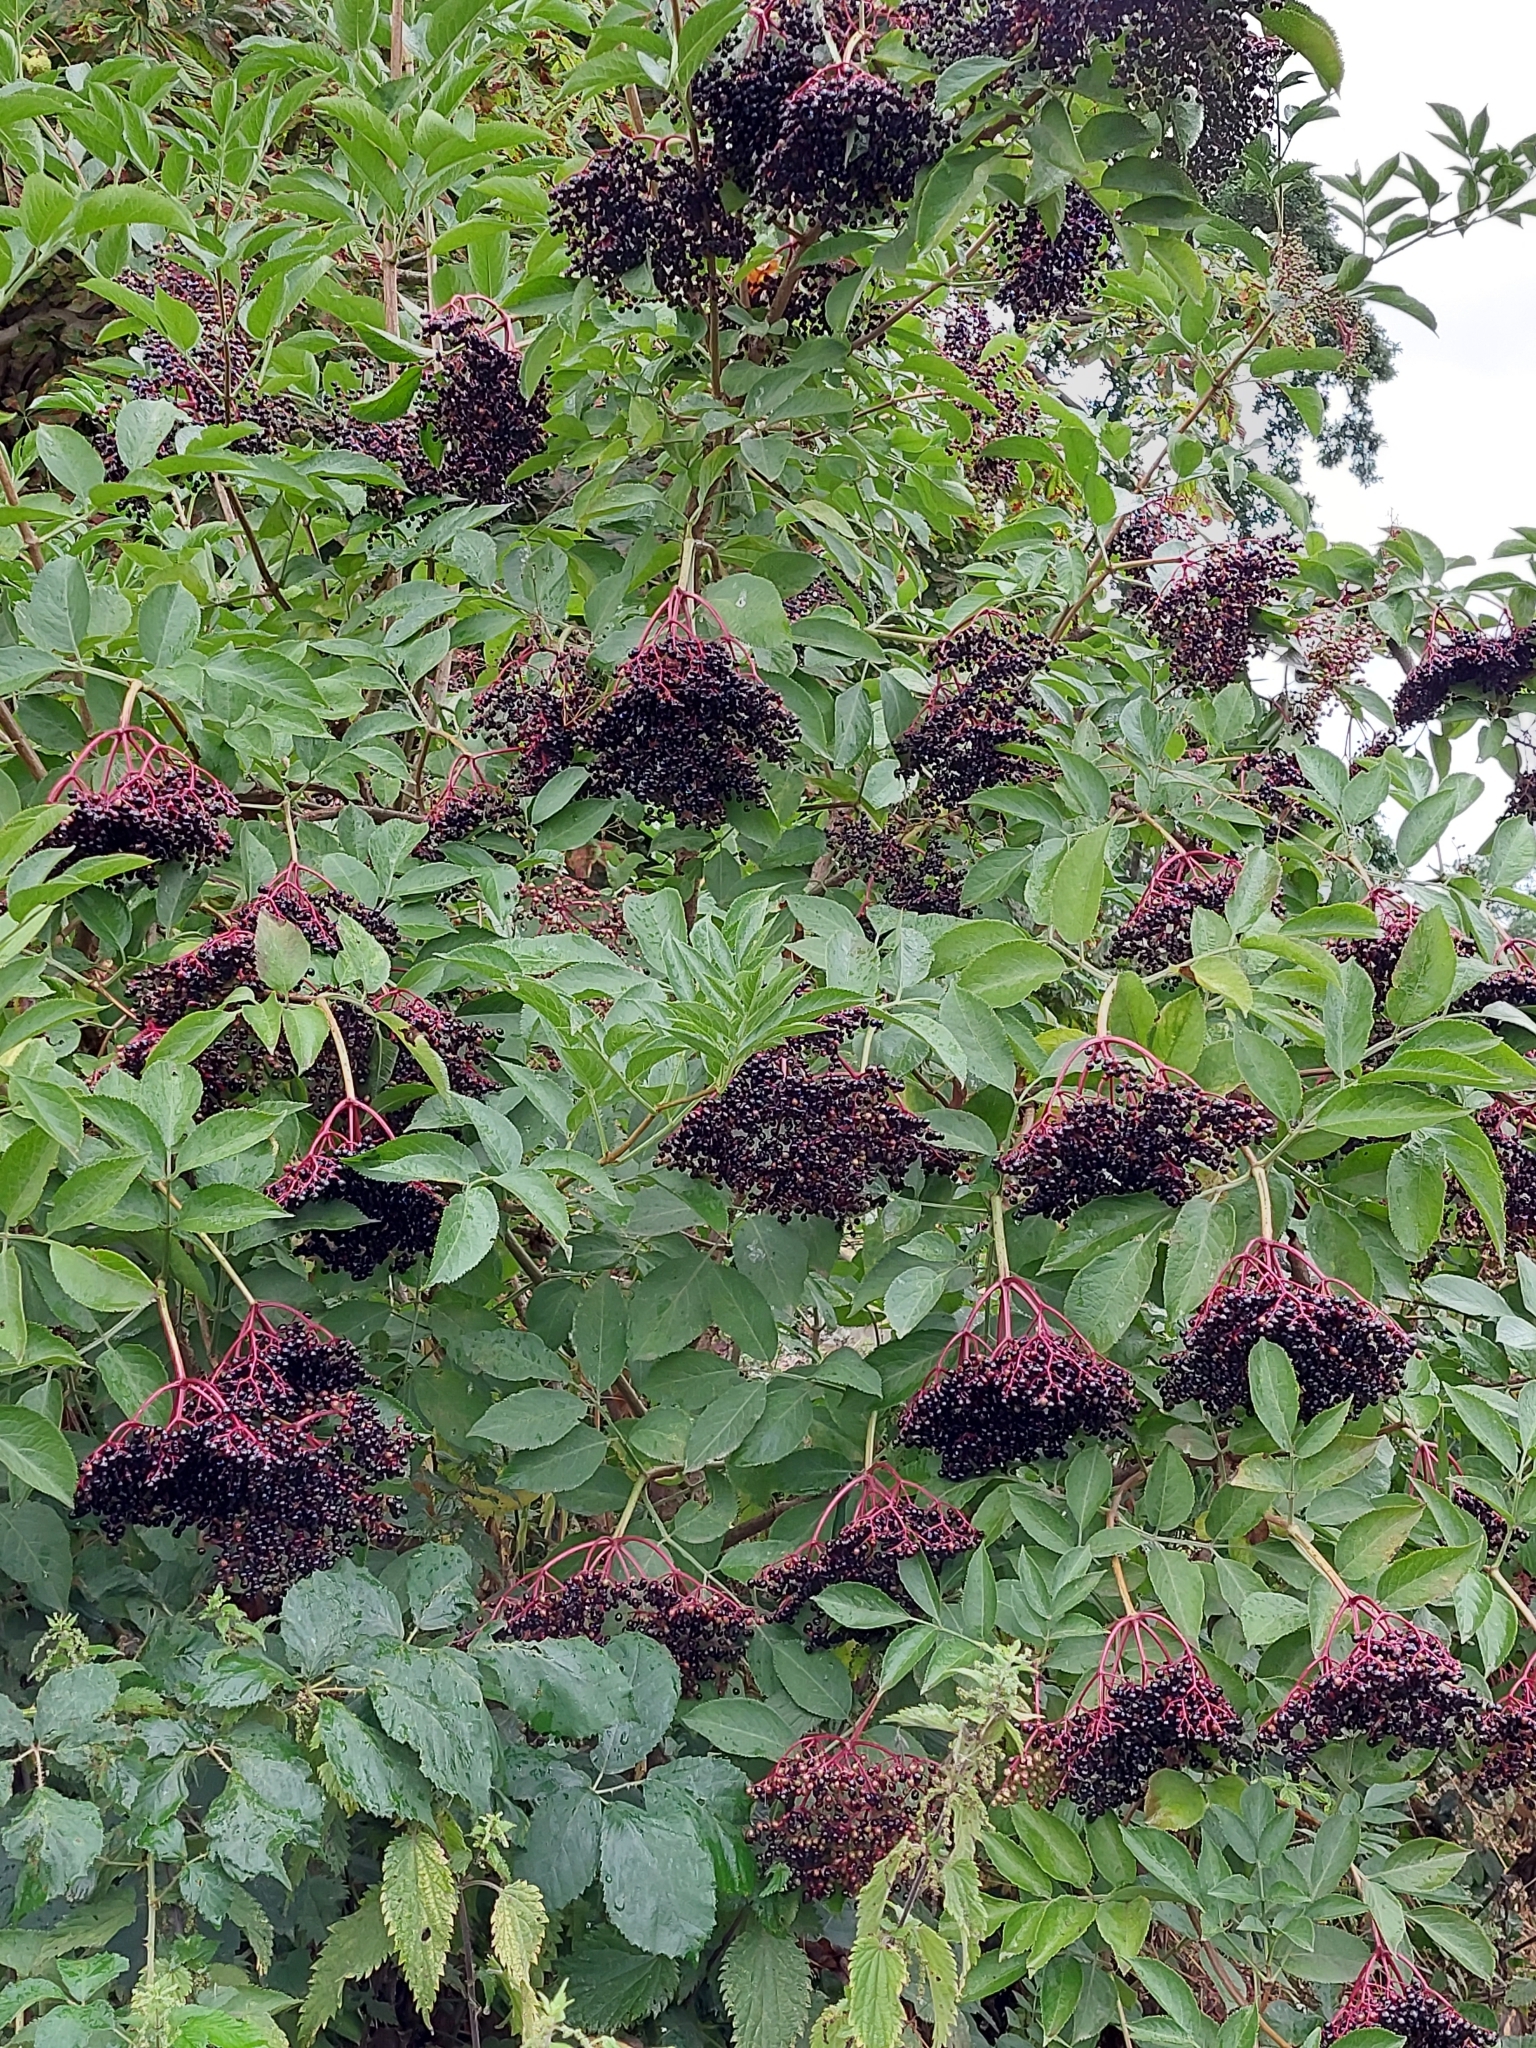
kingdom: Plantae
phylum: Tracheophyta
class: Magnoliopsida
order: Dipsacales
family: Viburnaceae
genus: Sambucus
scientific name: Sambucus nigra
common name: Elder
